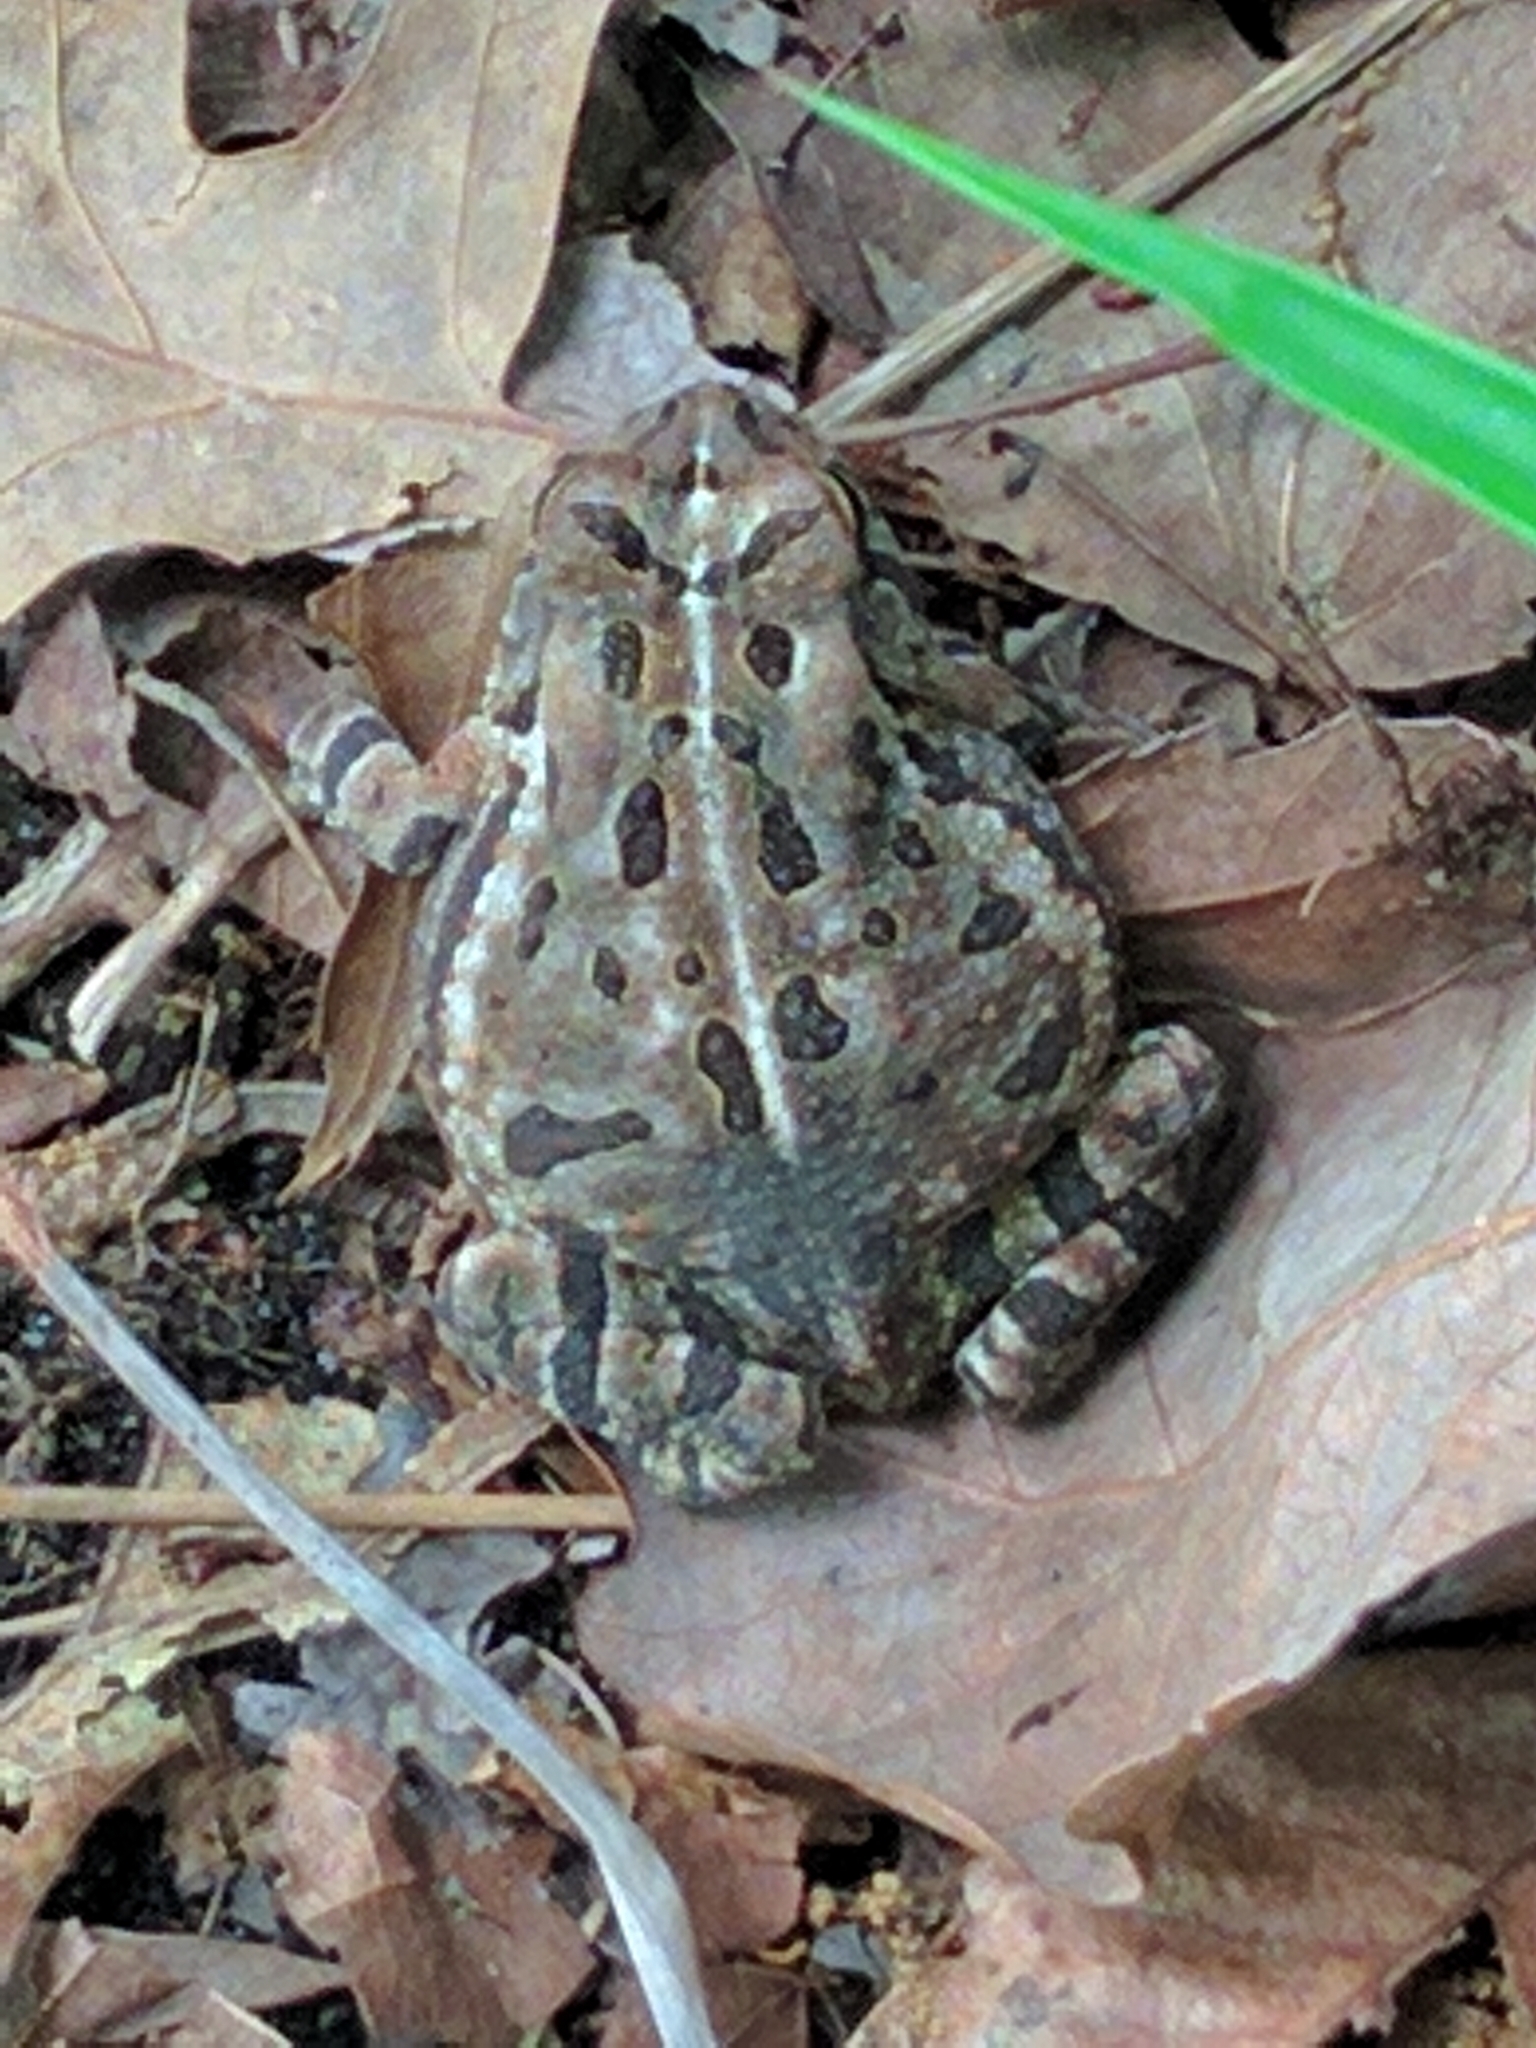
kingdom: Animalia
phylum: Chordata
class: Amphibia
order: Anura
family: Bufonidae
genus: Anaxyrus
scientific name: Anaxyrus fowleri
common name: Fowler's toad
